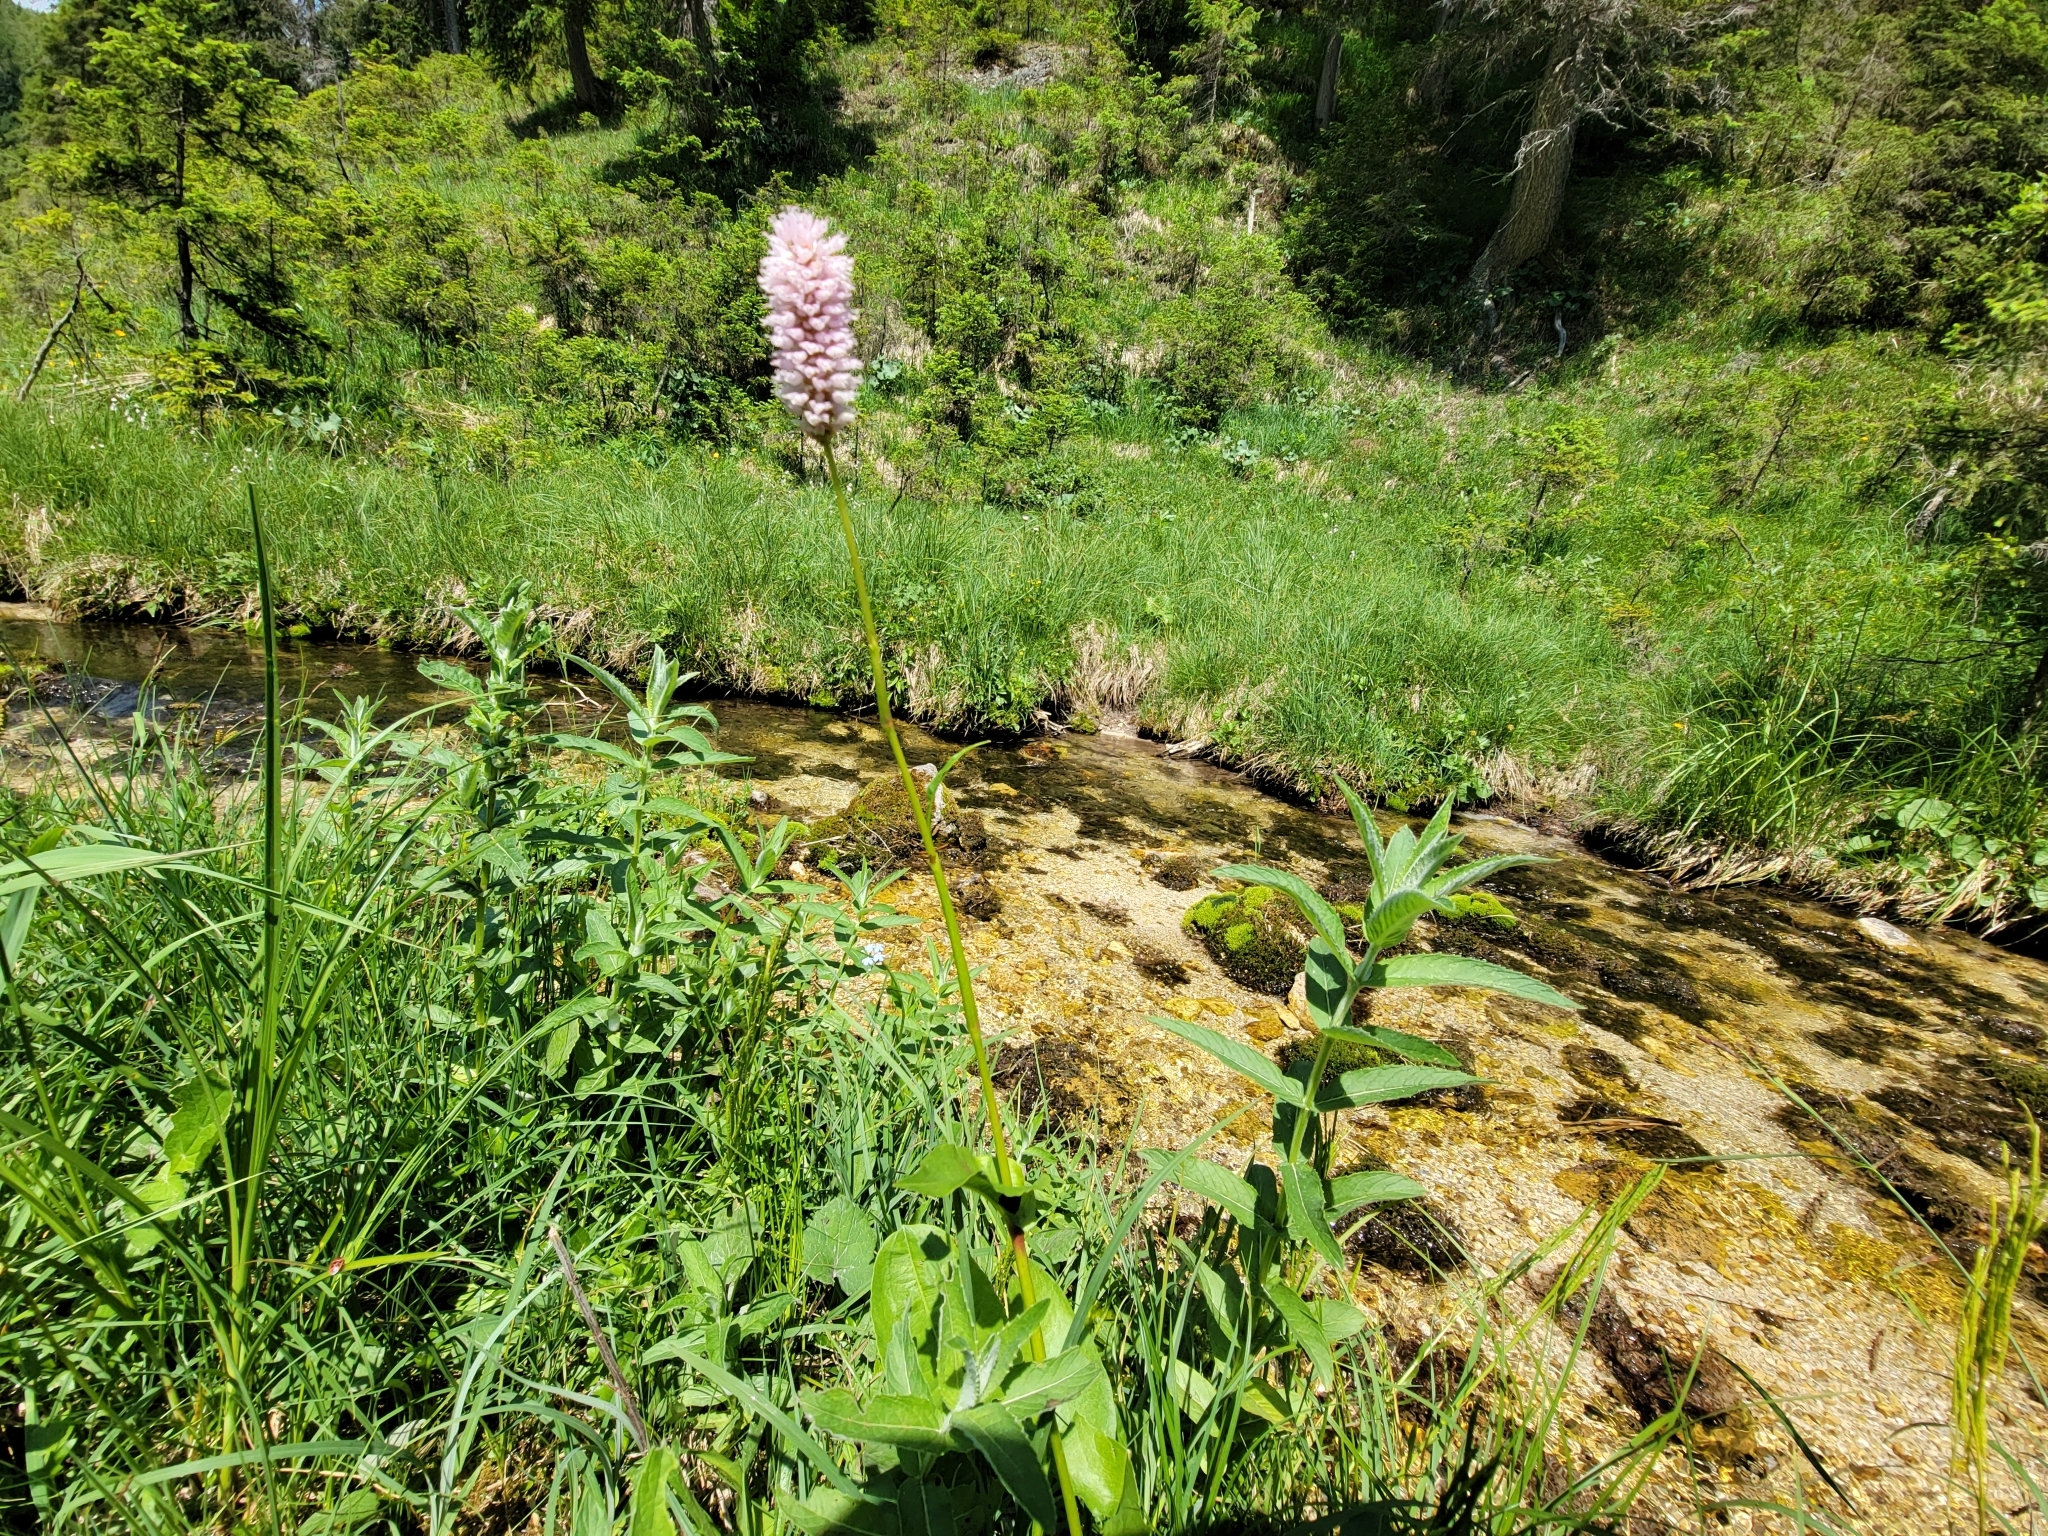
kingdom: Plantae
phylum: Tracheophyta
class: Magnoliopsida
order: Caryophyllales
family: Polygonaceae
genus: Bistorta
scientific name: Bistorta officinalis
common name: Common bistort
